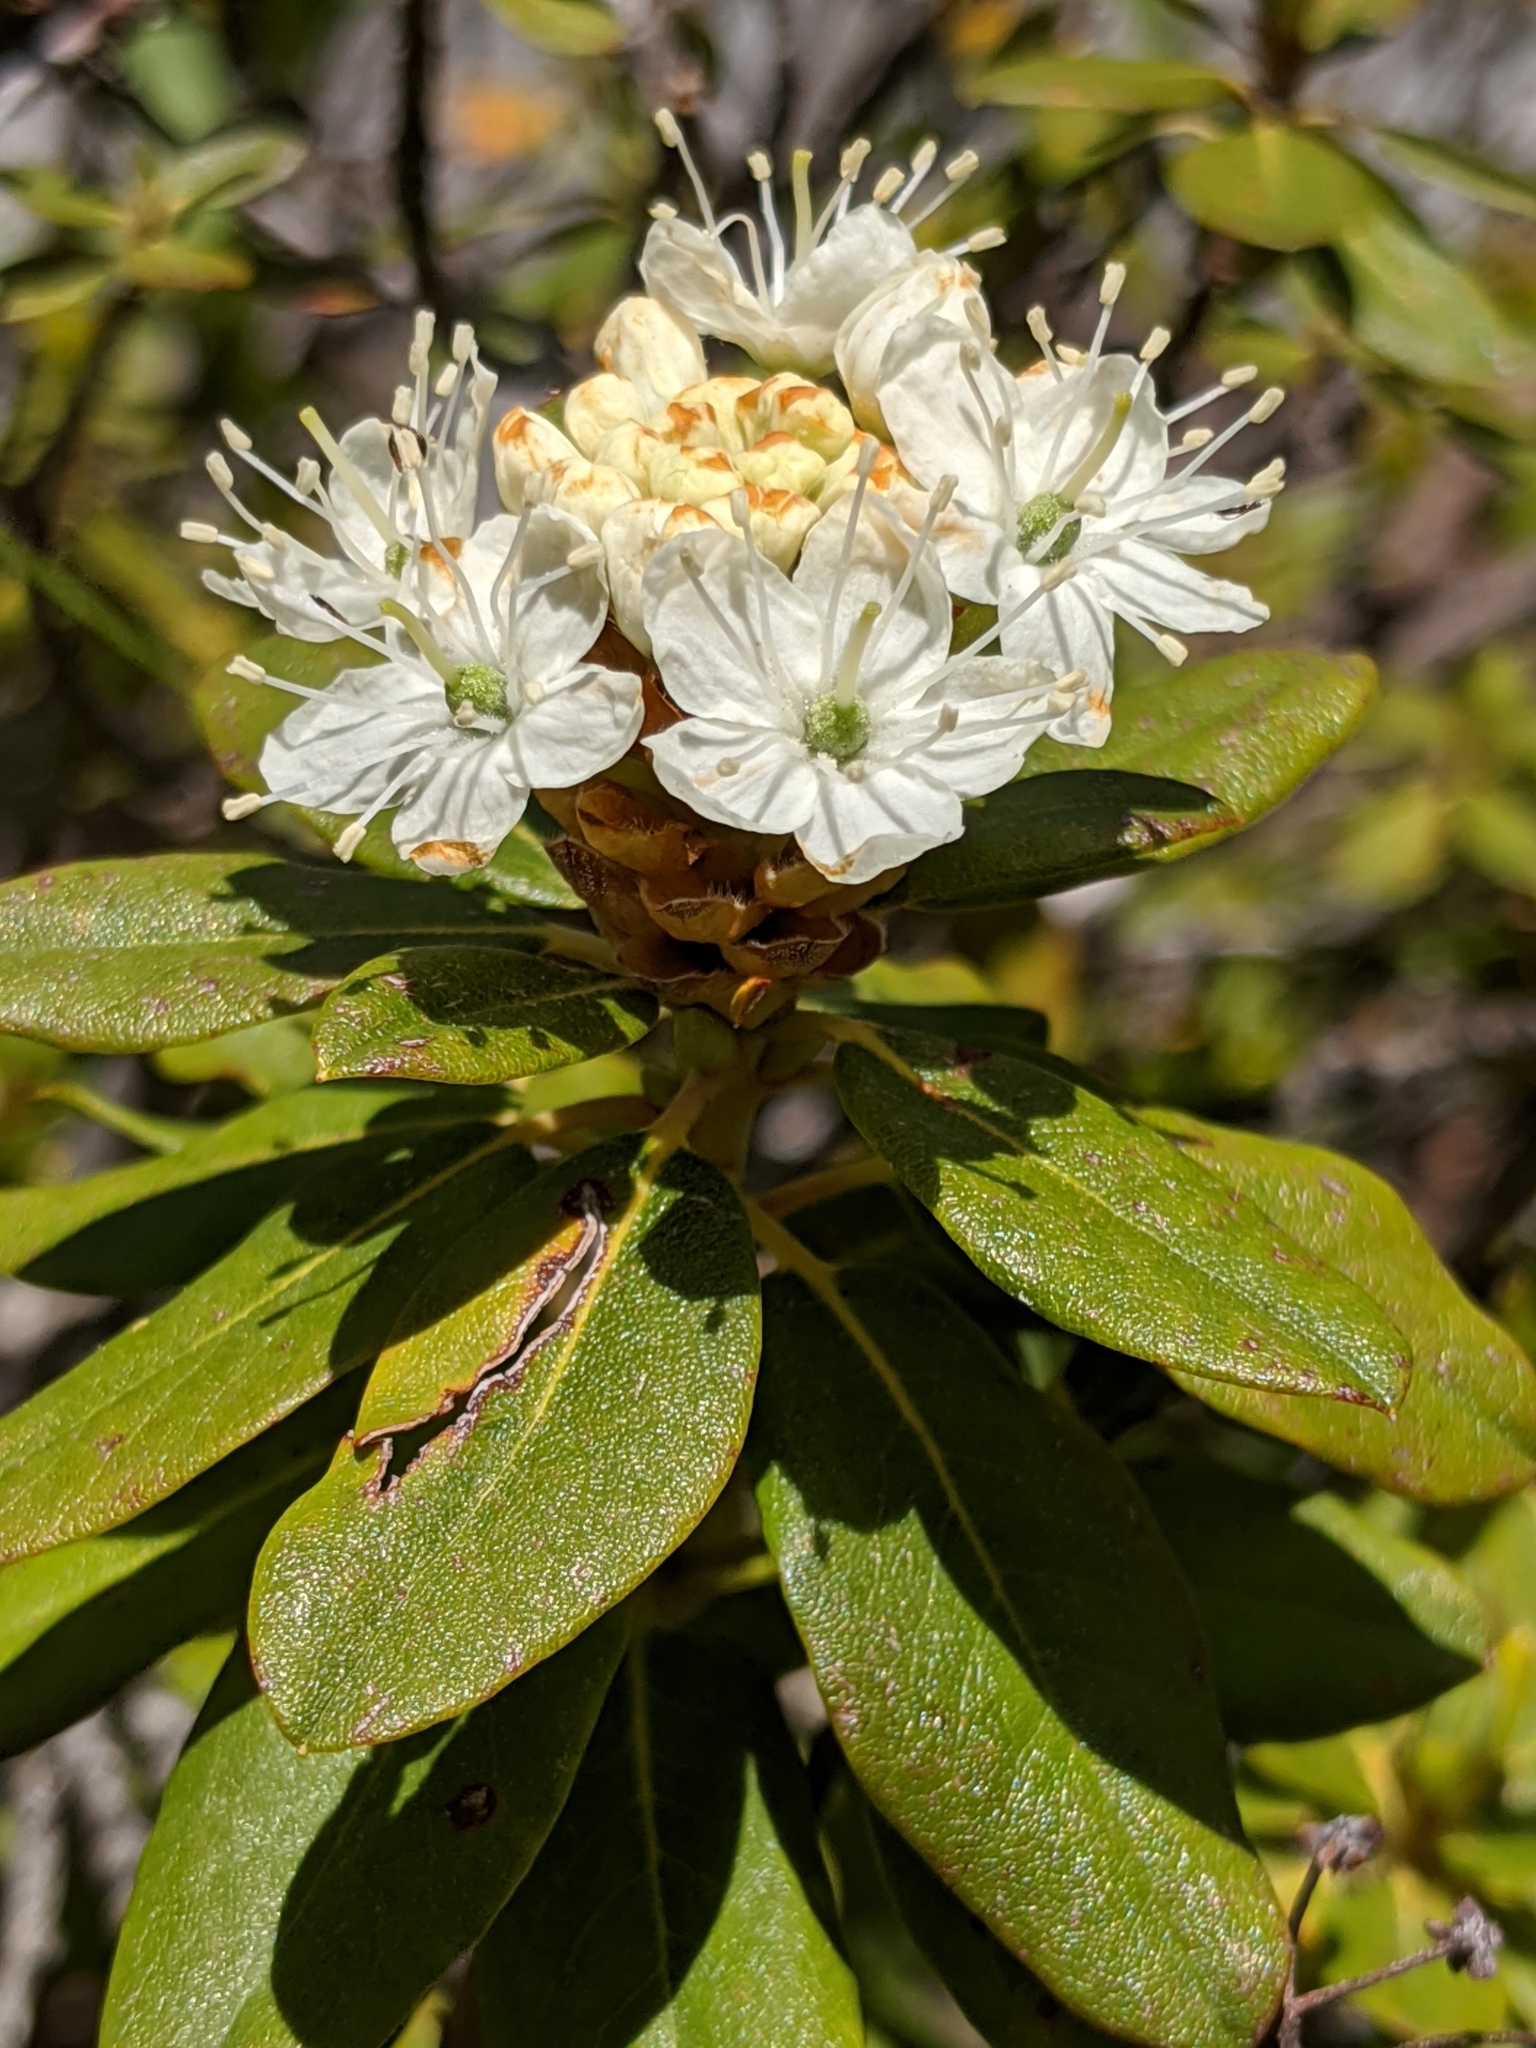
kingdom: Plantae
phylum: Tracheophyta
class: Magnoliopsida
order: Ericales
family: Ericaceae
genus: Rhododendron
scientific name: Rhododendron columbianum
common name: Western labrador tea
